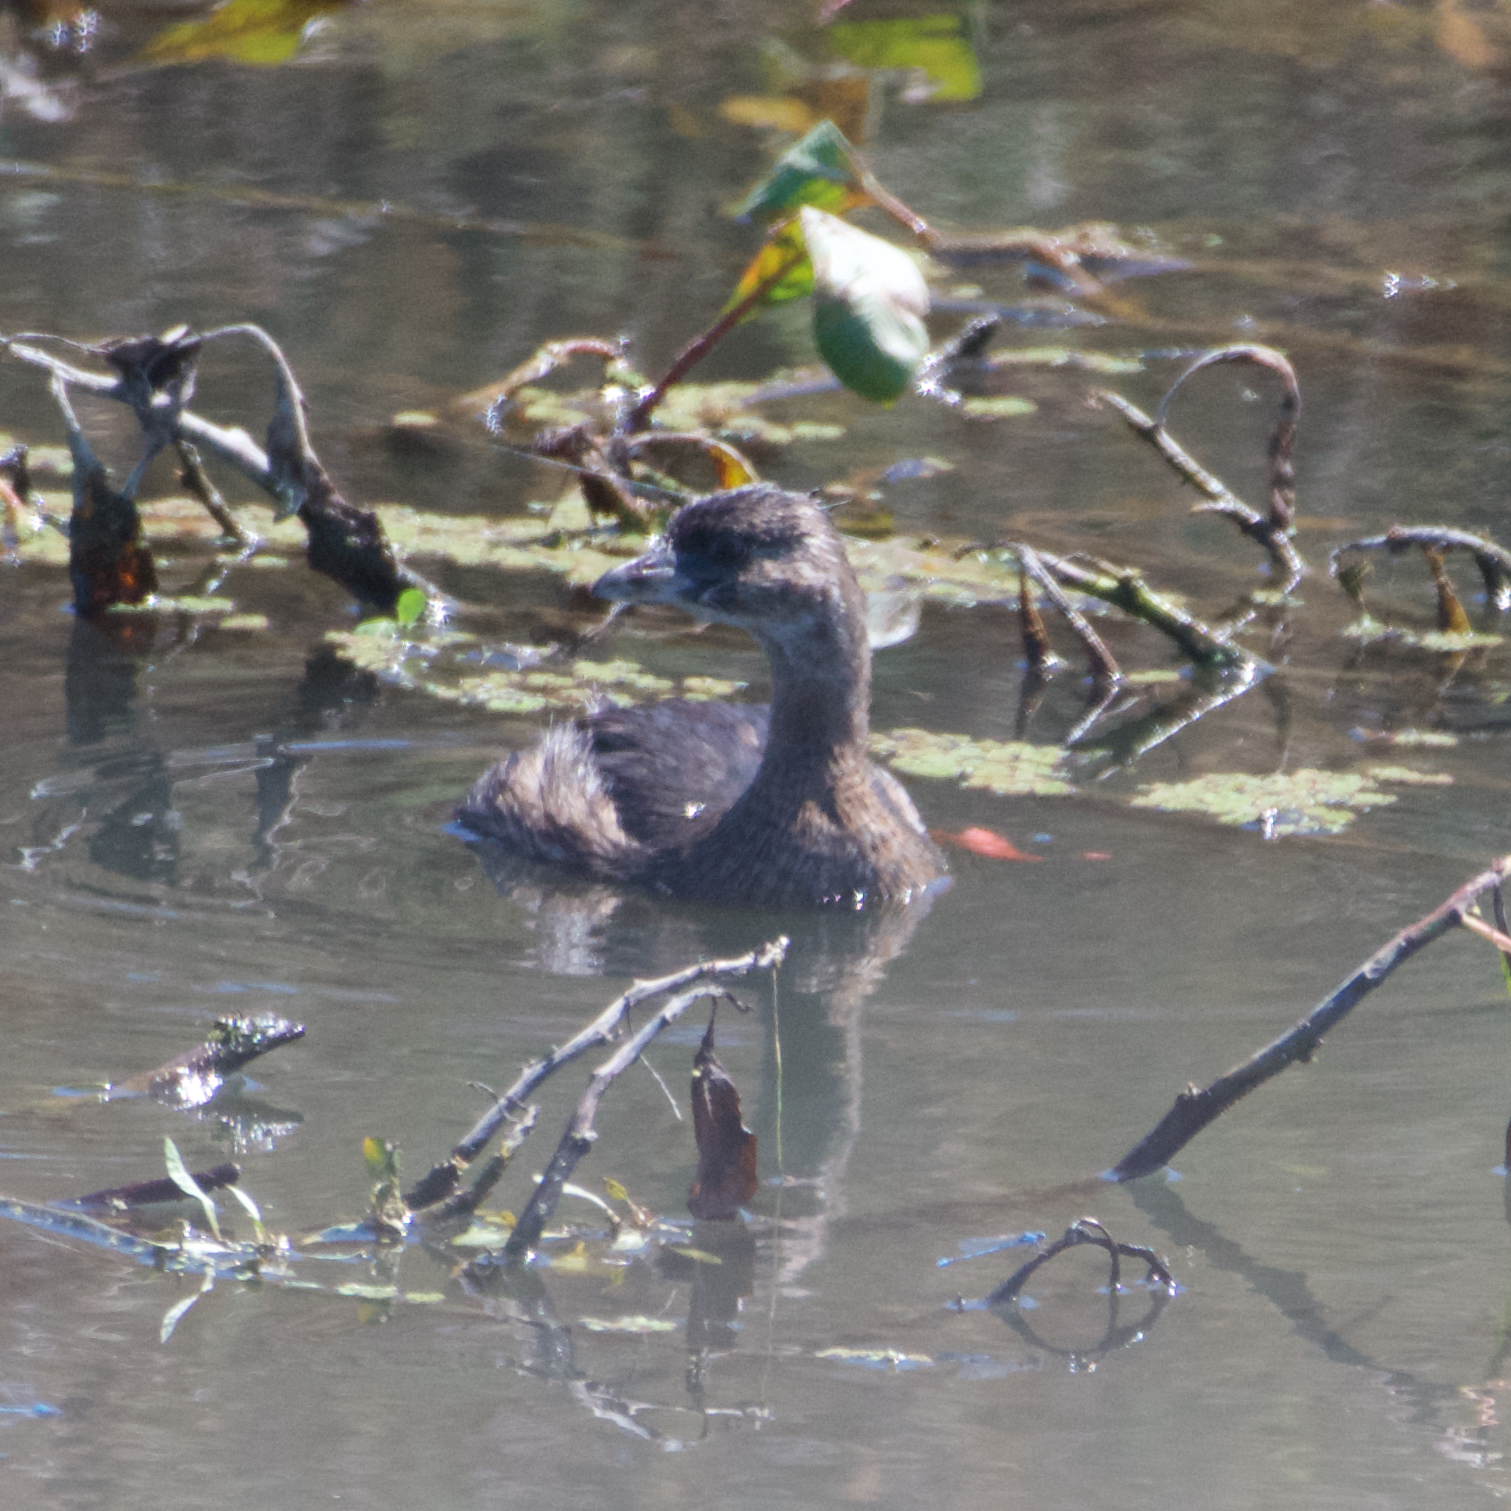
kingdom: Animalia
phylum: Chordata
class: Aves
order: Podicipediformes
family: Podicipedidae
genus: Podilymbus
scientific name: Podilymbus podiceps
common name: Pied-billed grebe
